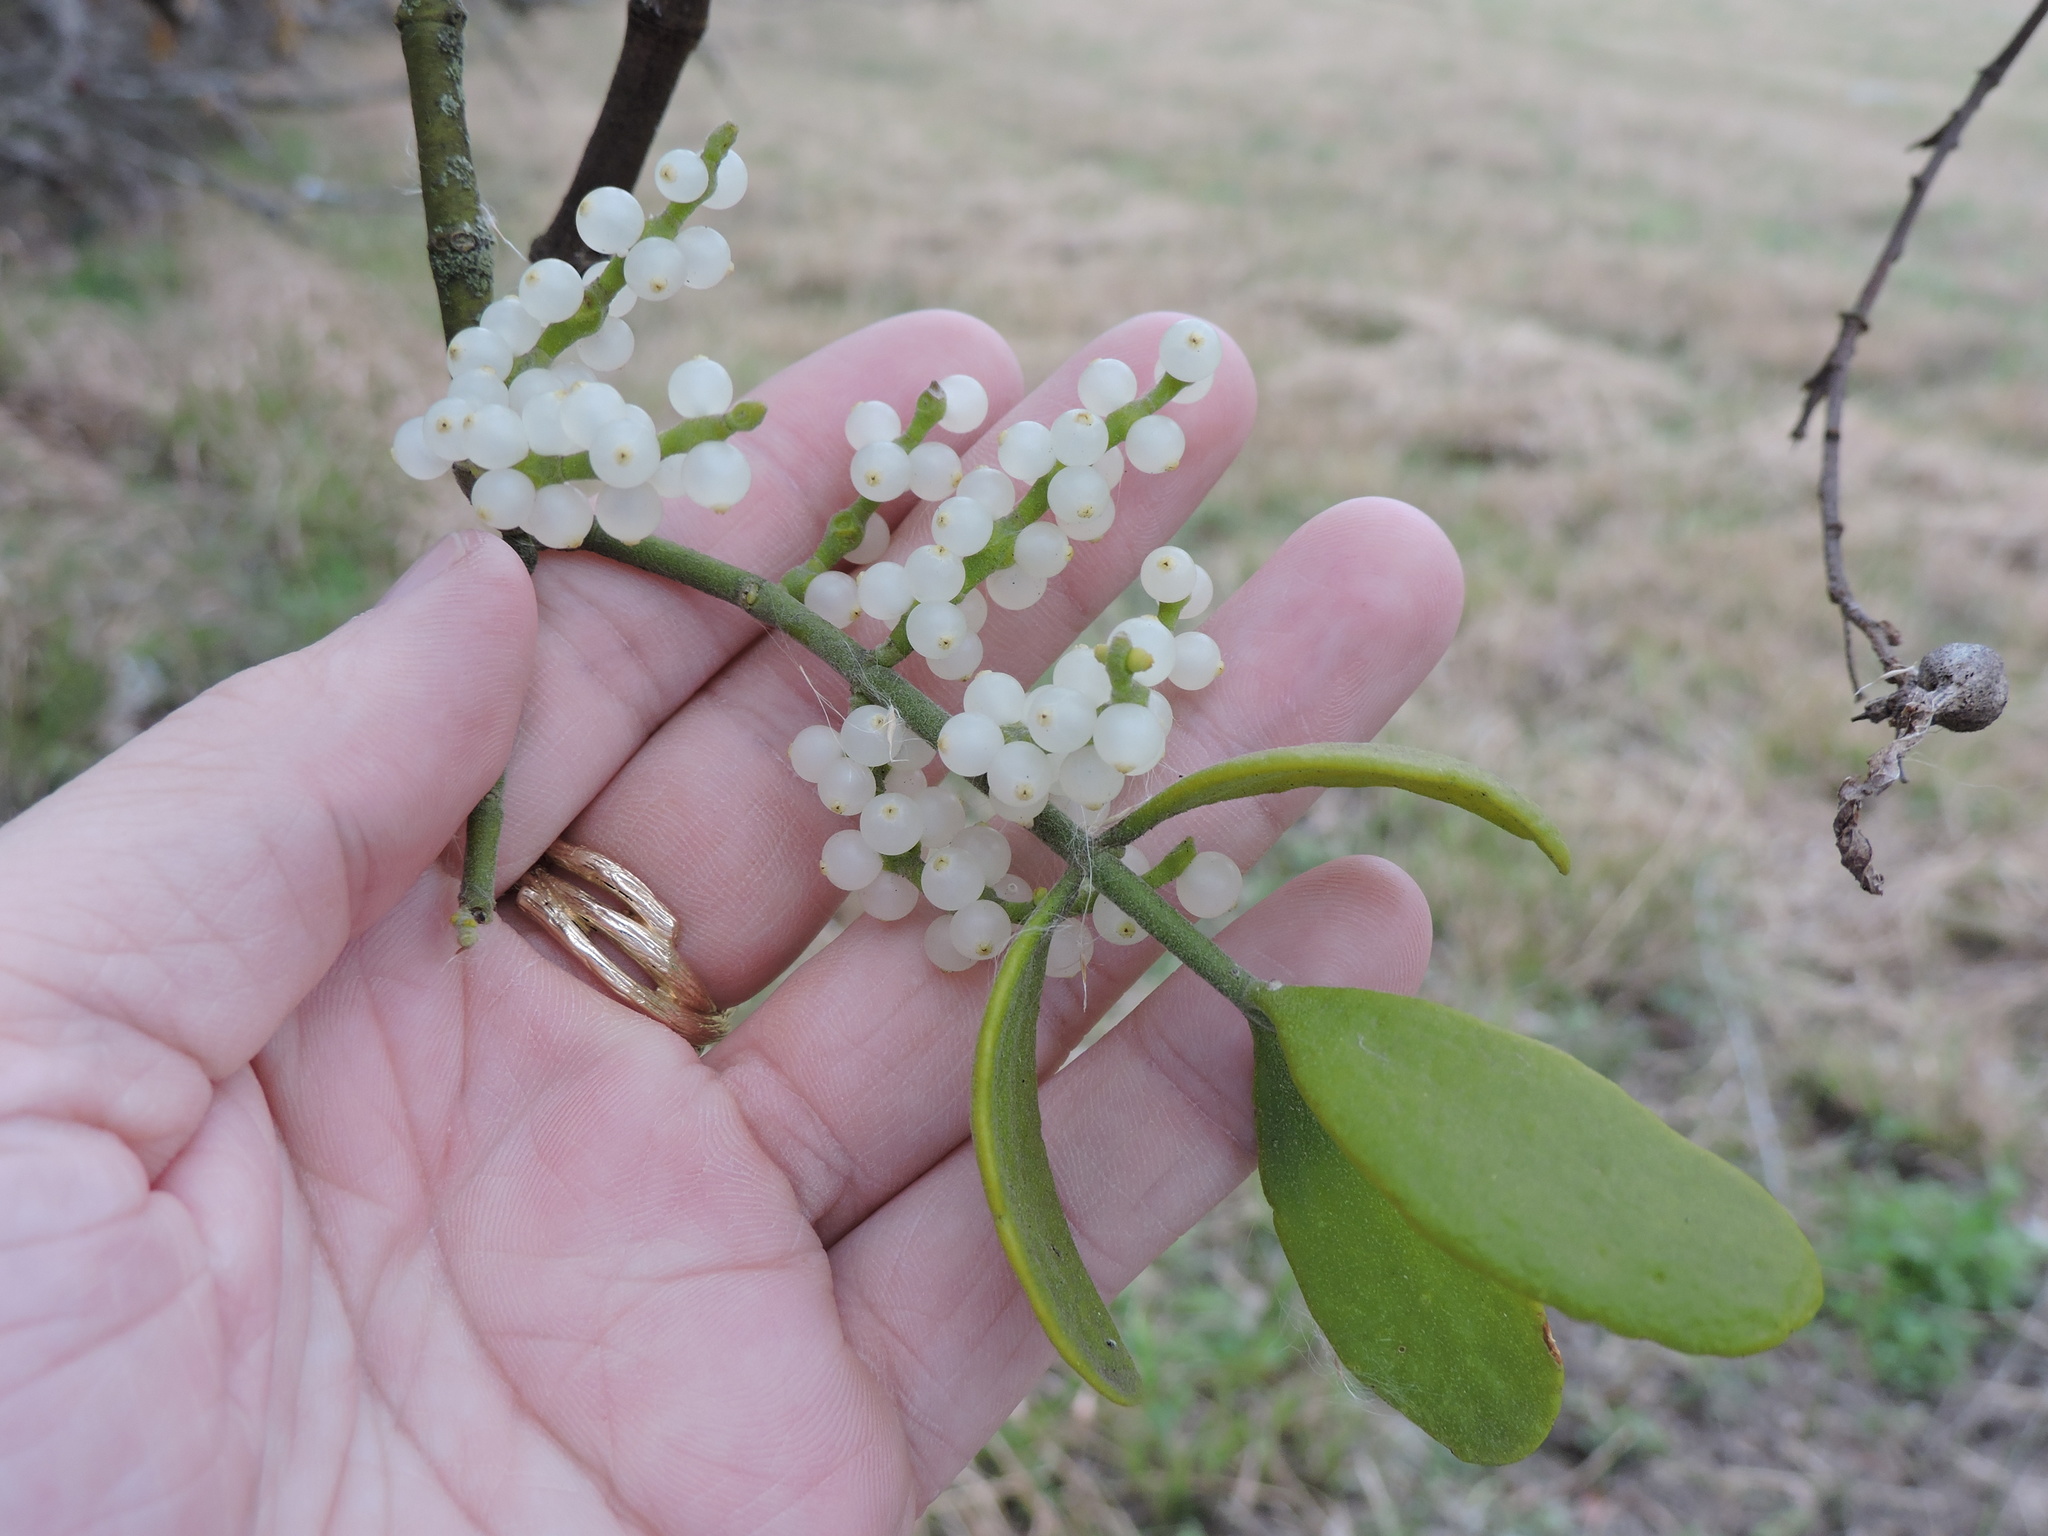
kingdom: Plantae
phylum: Tracheophyta
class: Magnoliopsida
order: Santalales
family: Viscaceae
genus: Phoradendron
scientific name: Phoradendron leucarpum
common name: Pacific mistletoe
